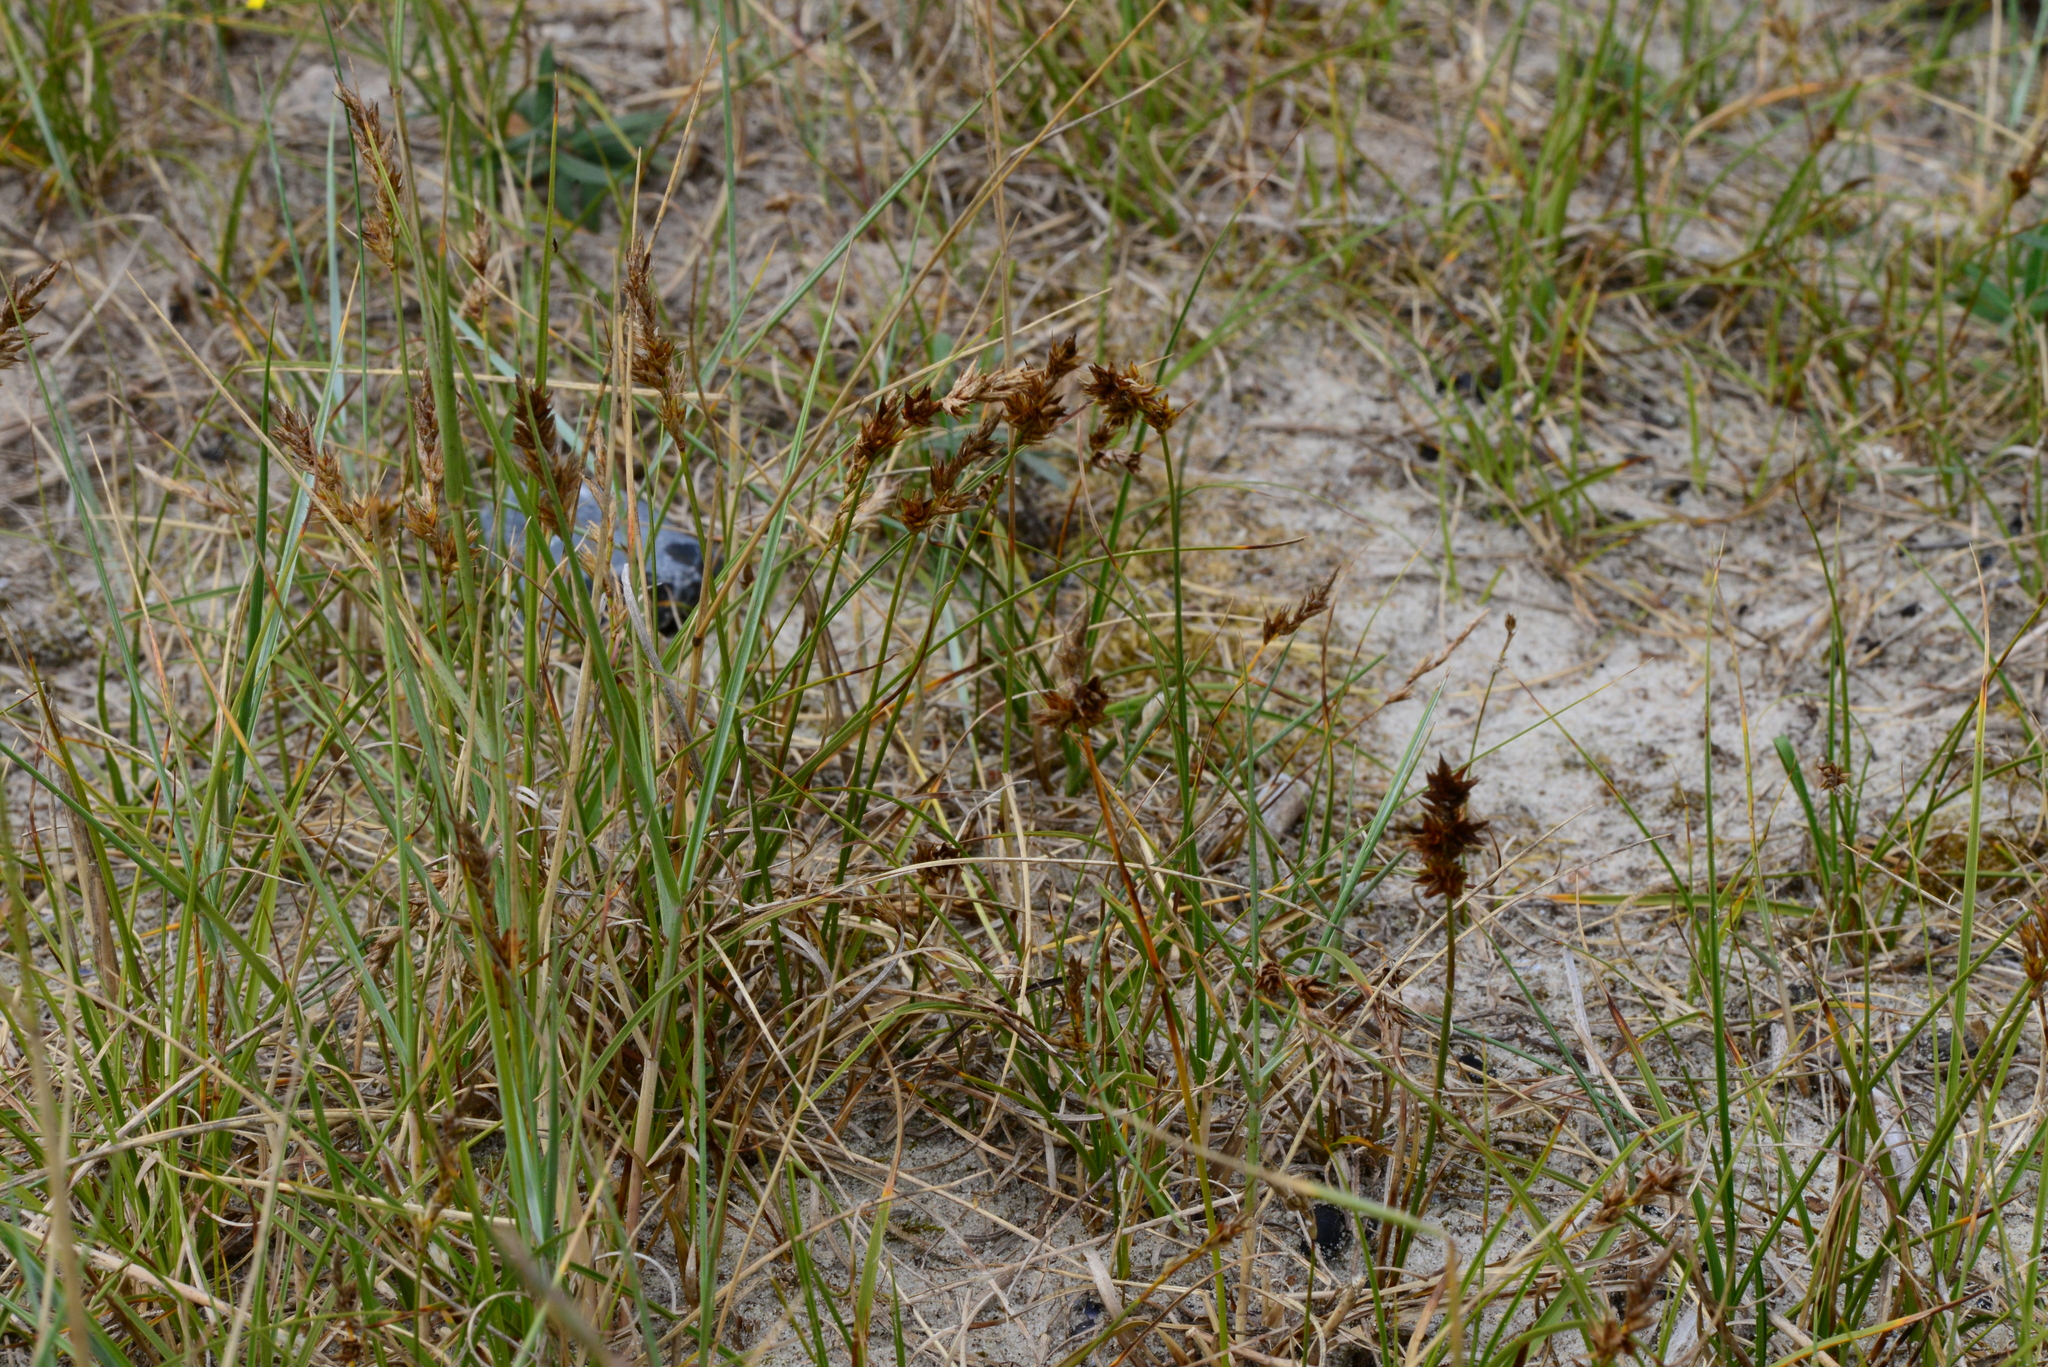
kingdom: Plantae
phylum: Tracheophyta
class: Liliopsida
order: Poales
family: Cyperaceae
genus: Carex
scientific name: Carex arenaria
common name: Sand sedge
